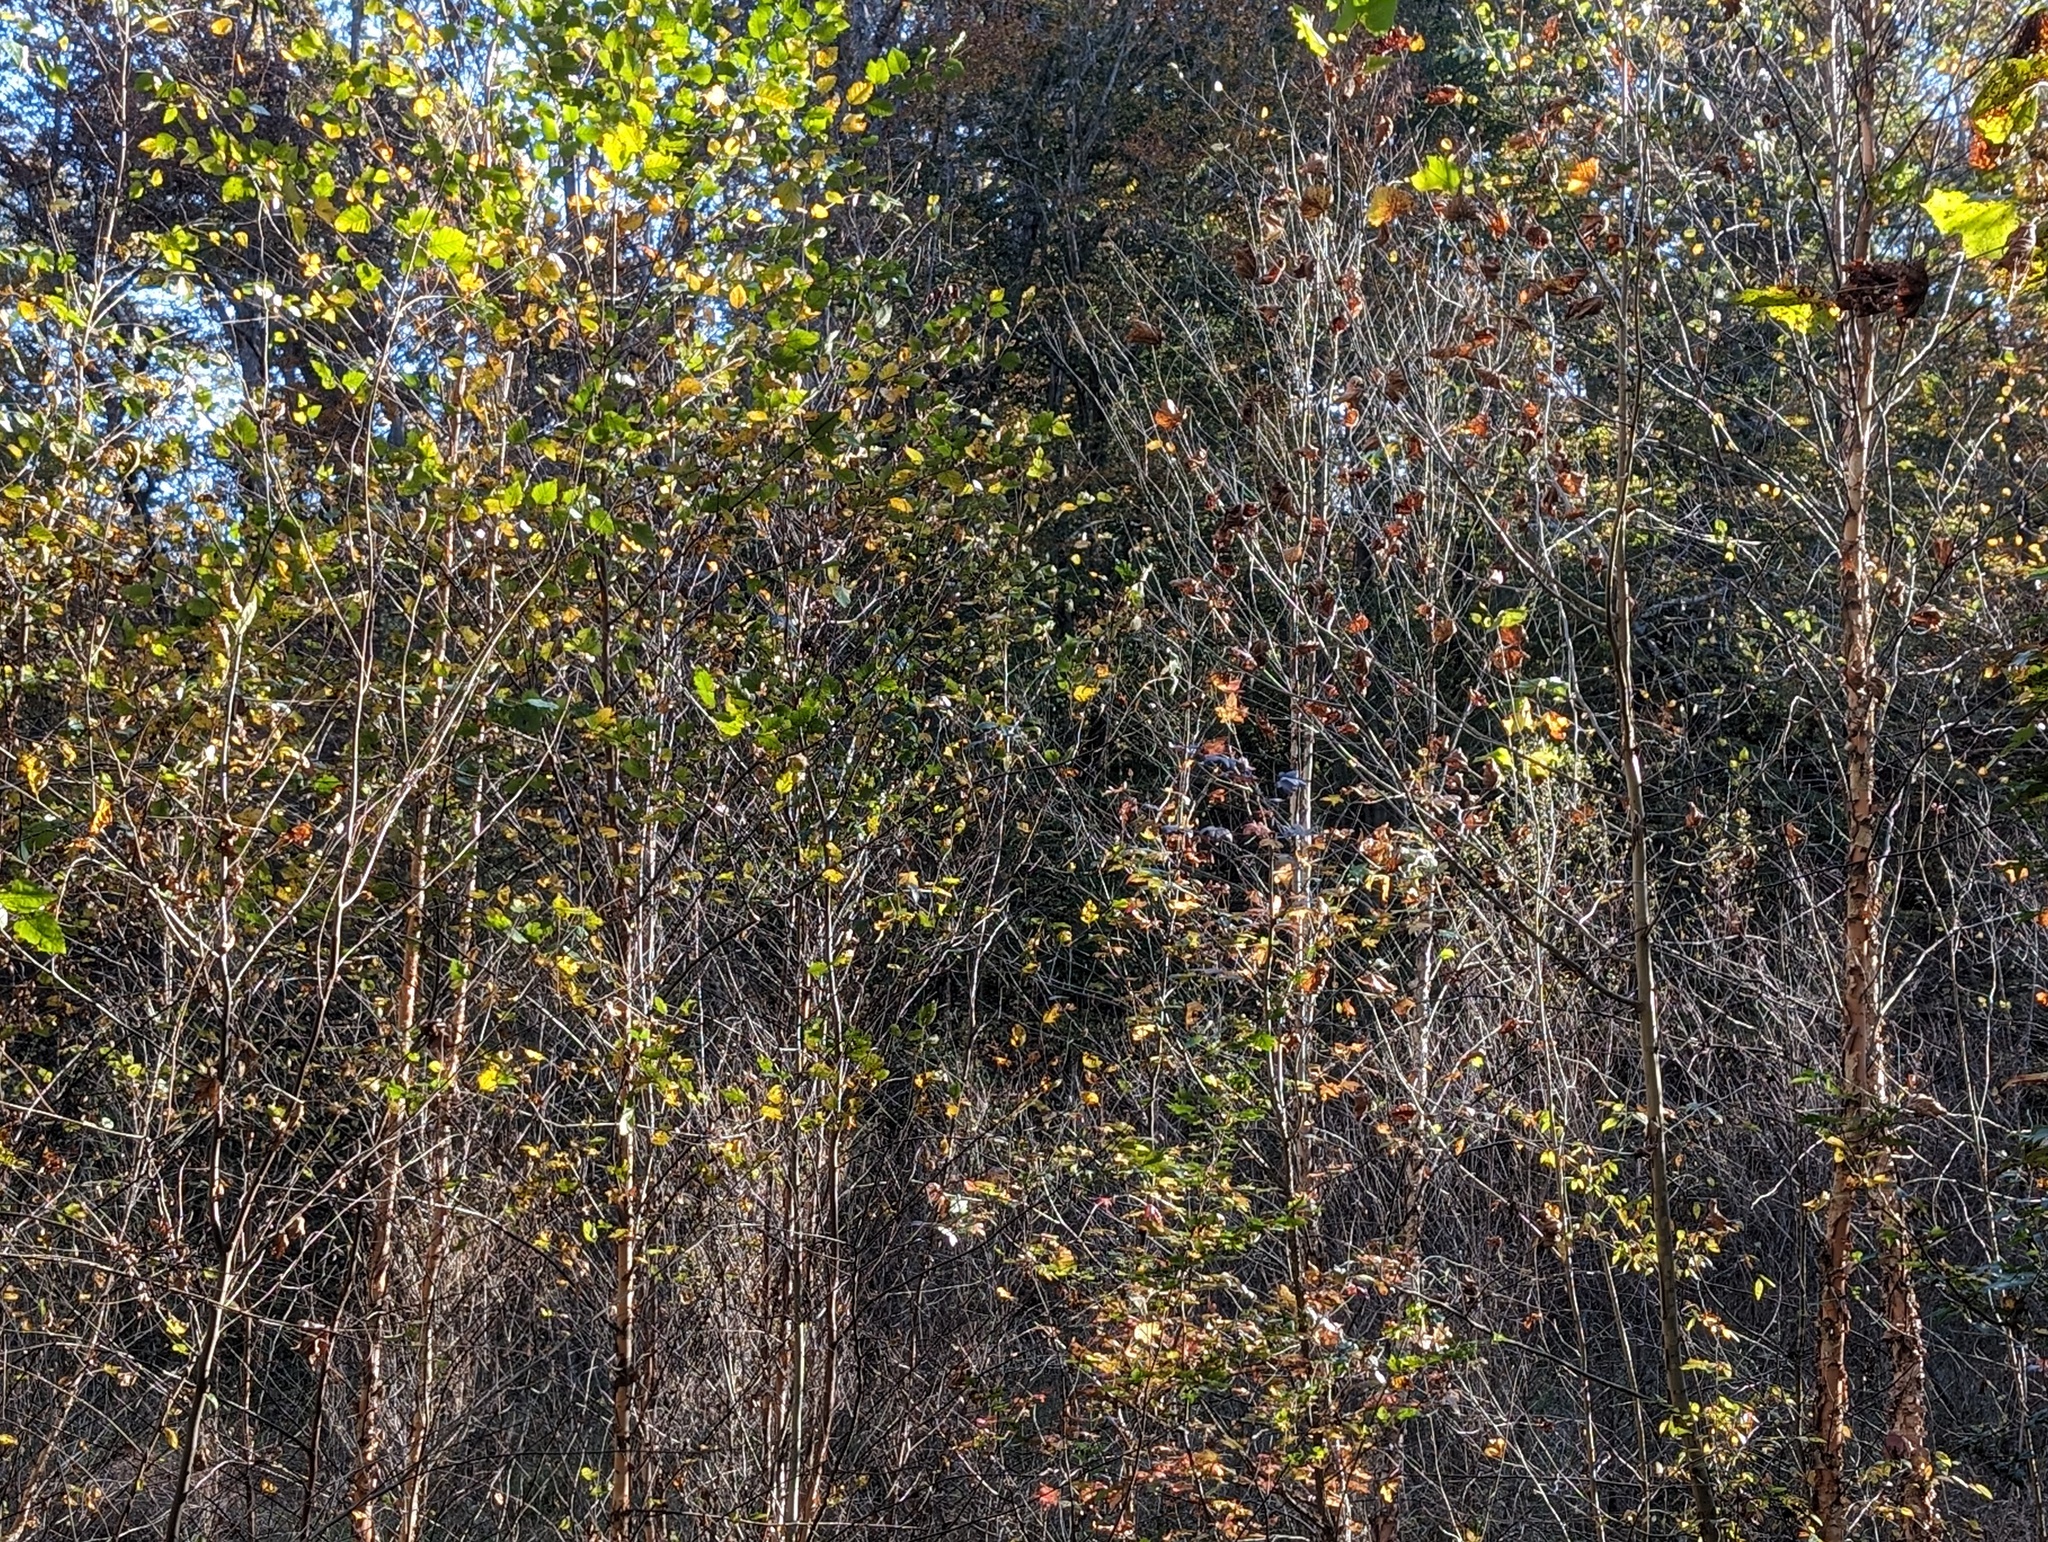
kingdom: Plantae
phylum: Tracheophyta
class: Magnoliopsida
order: Fagales
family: Betulaceae
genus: Betula
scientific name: Betula nigra
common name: Black birch
